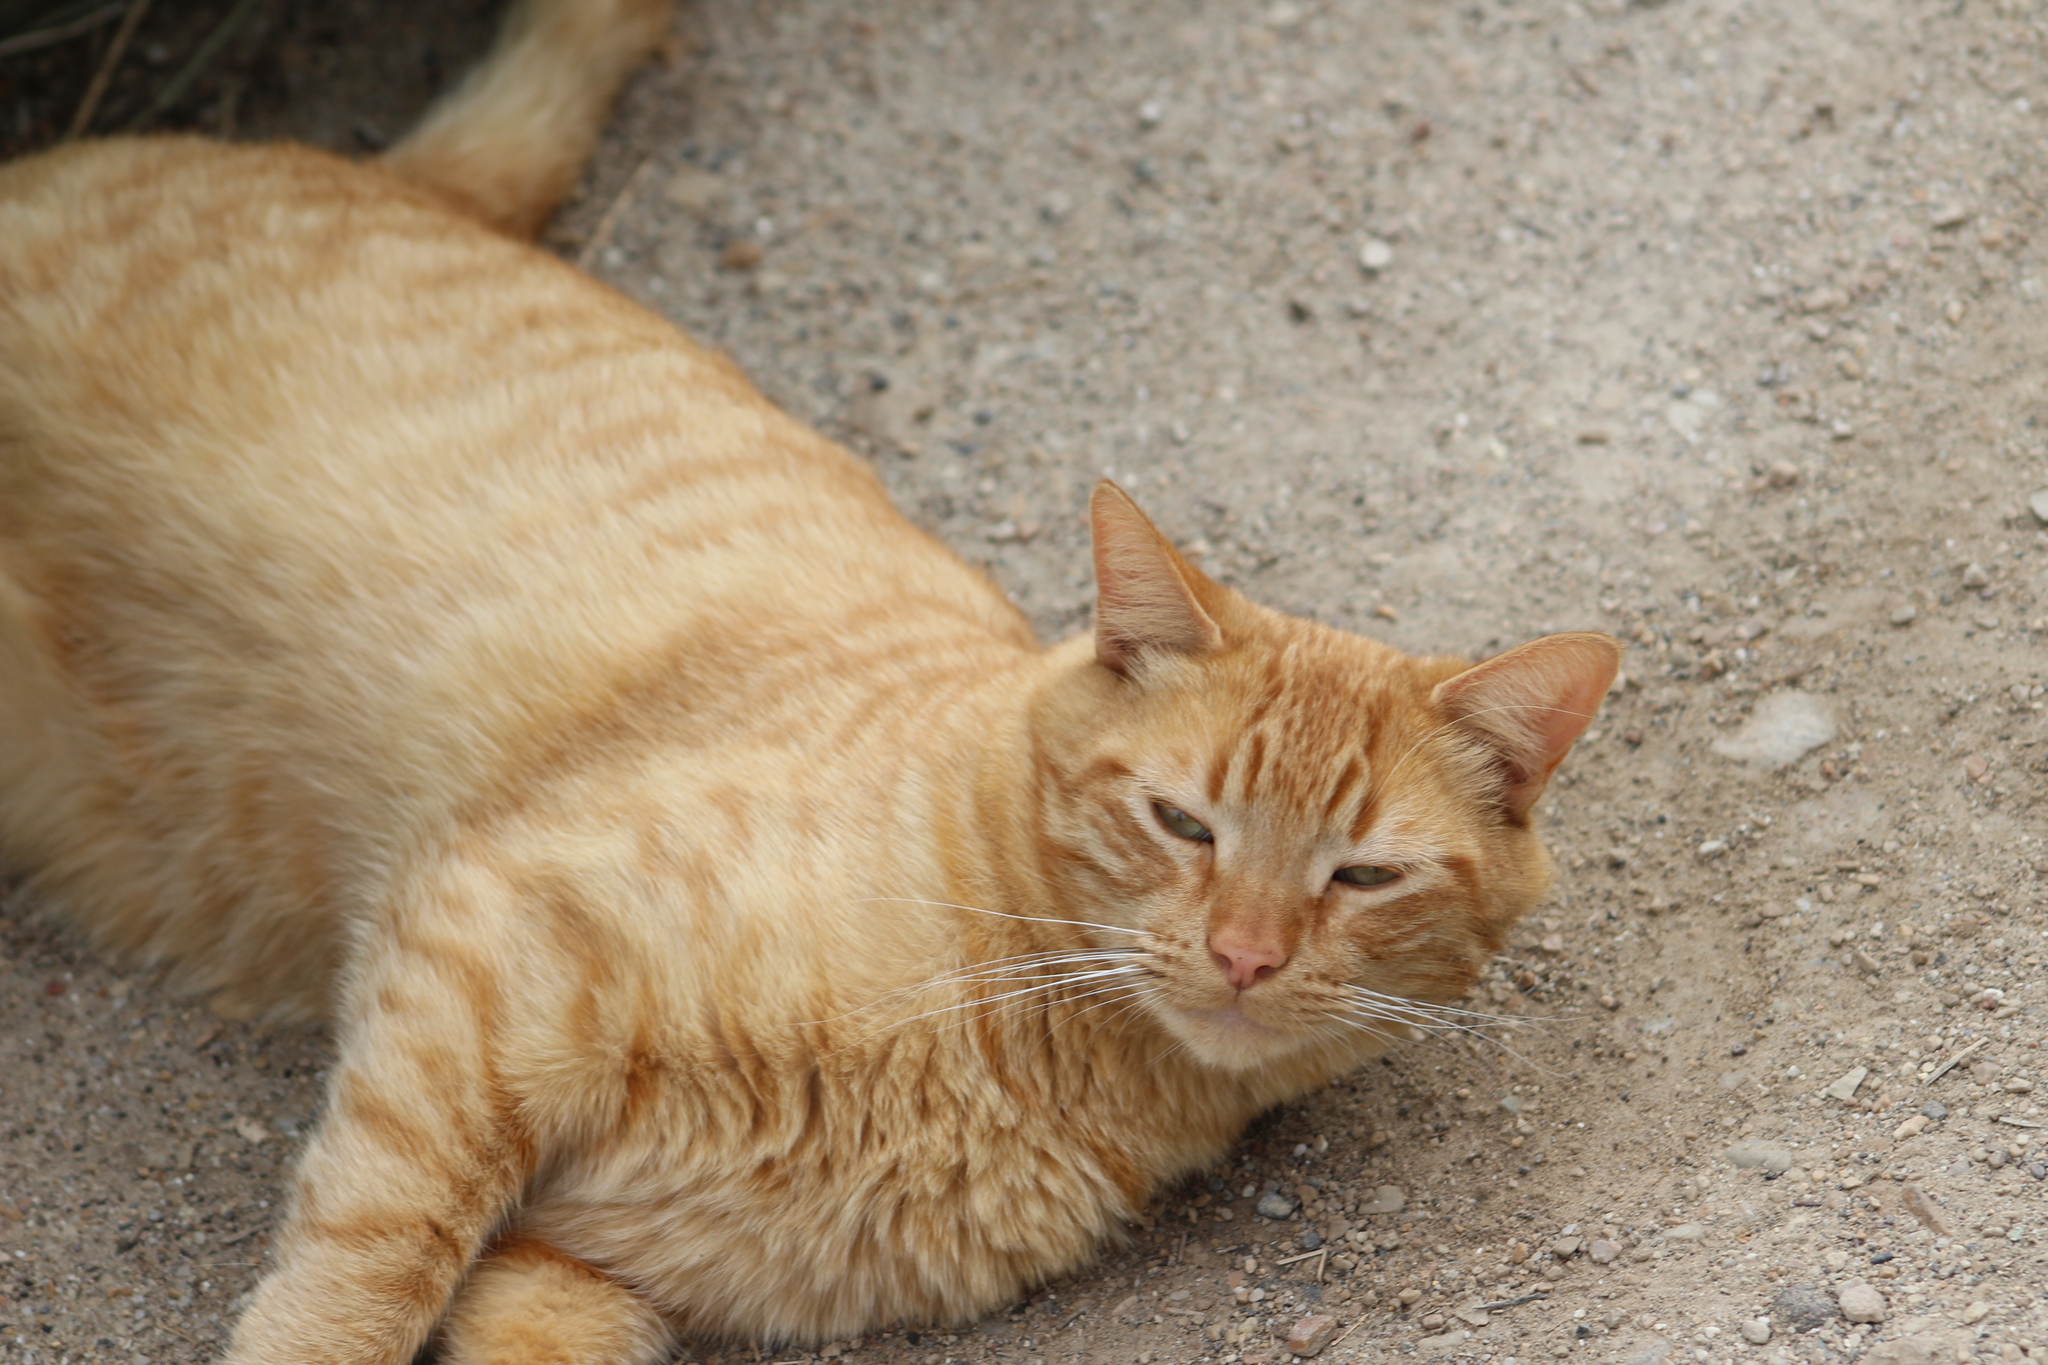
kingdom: Animalia
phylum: Chordata
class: Mammalia
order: Carnivora
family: Felidae
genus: Felis
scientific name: Felis catus
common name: Domestic cat
